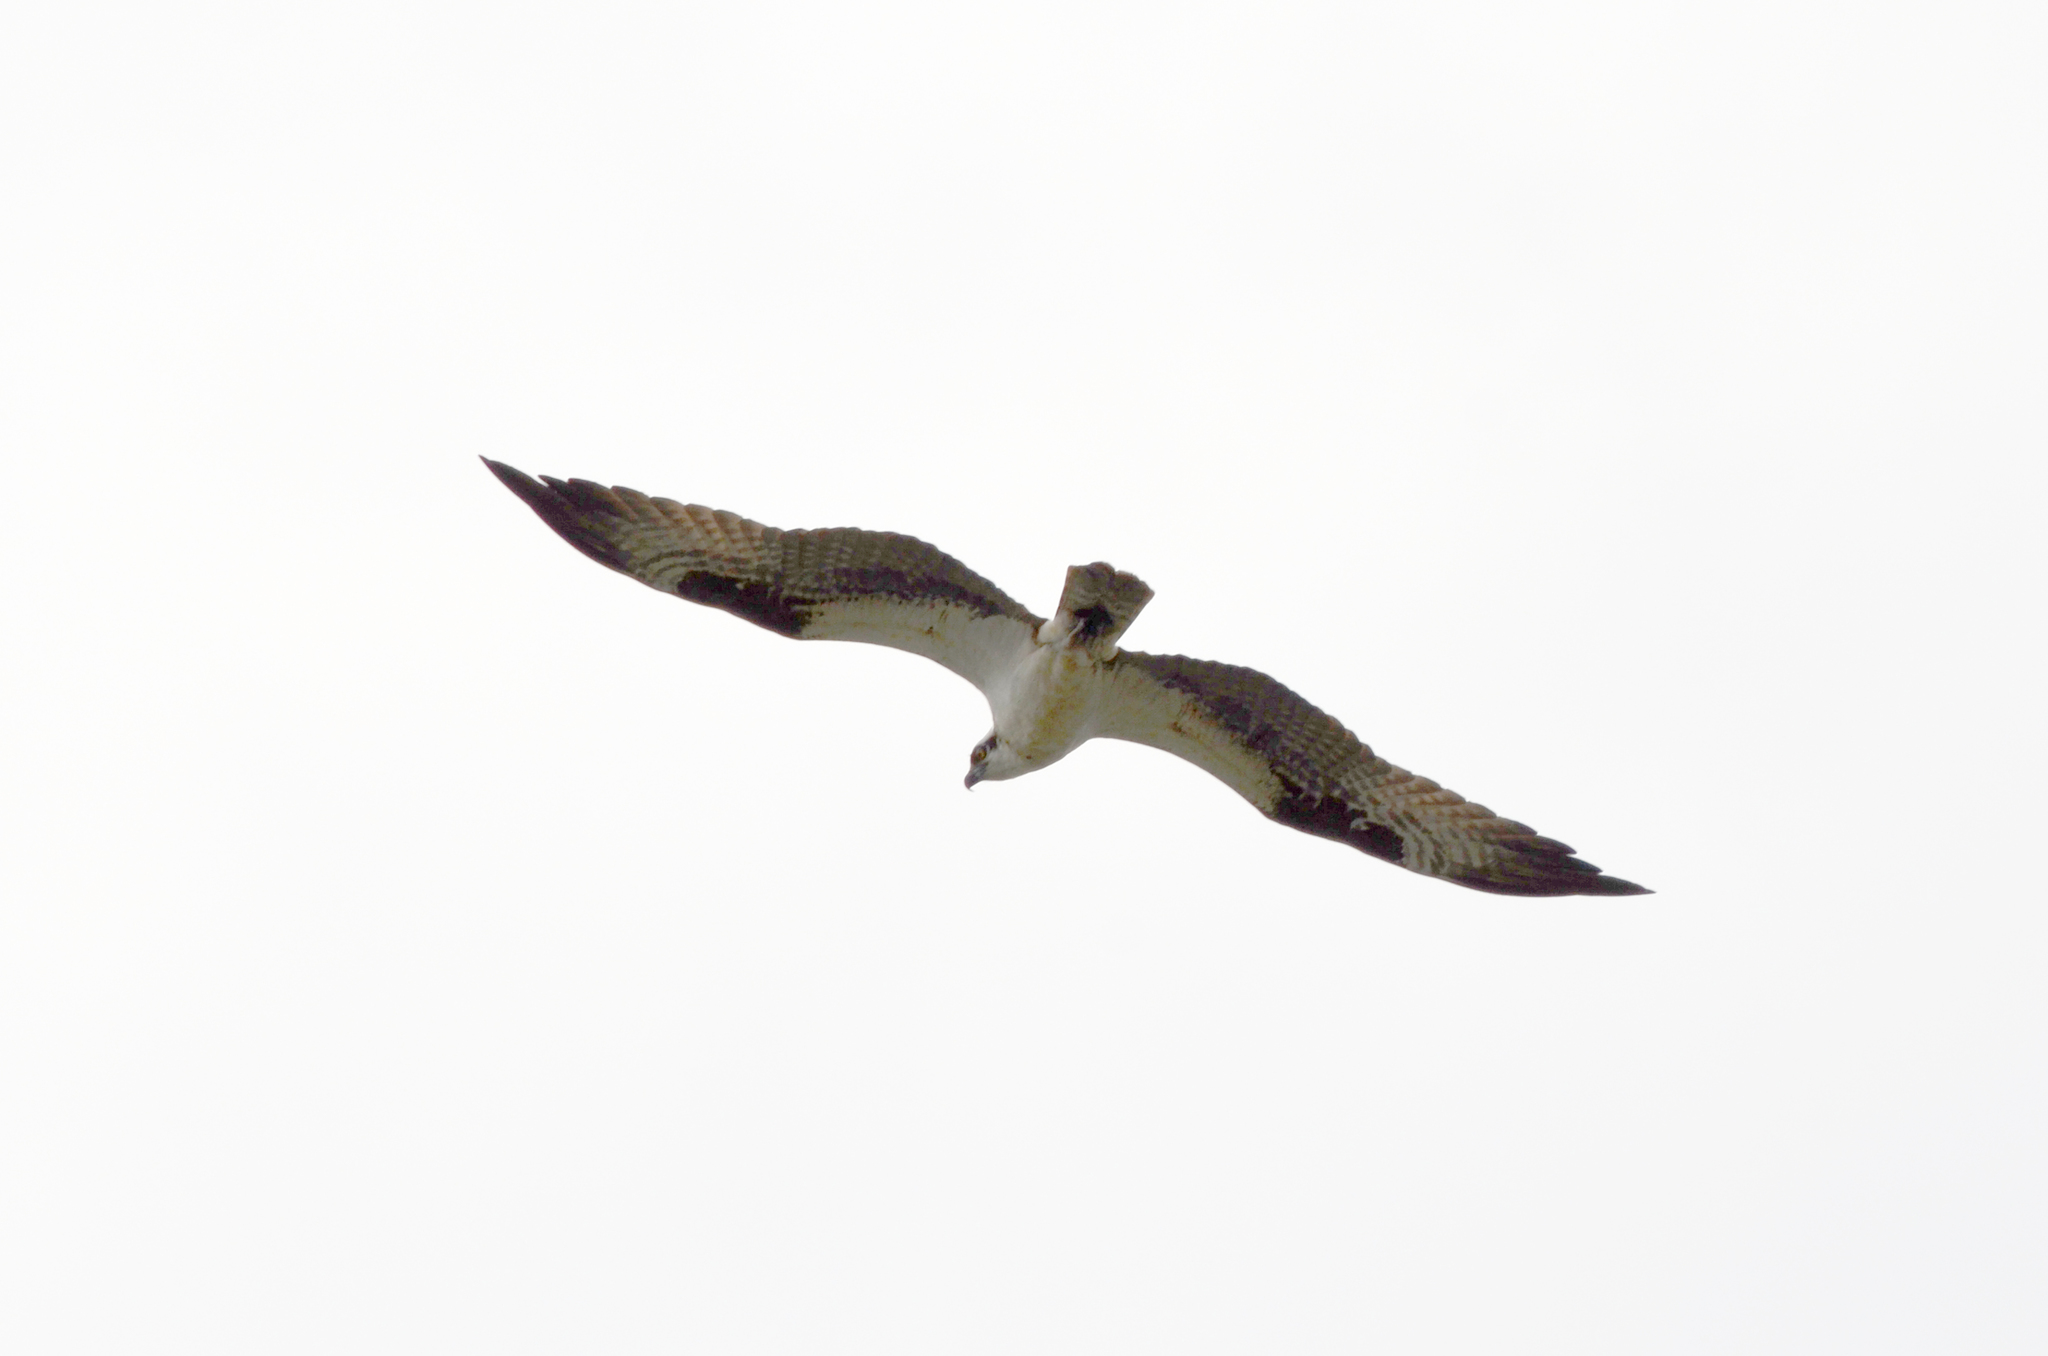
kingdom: Animalia
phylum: Chordata
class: Aves
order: Accipitriformes
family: Pandionidae
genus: Pandion
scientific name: Pandion haliaetus
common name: Osprey
